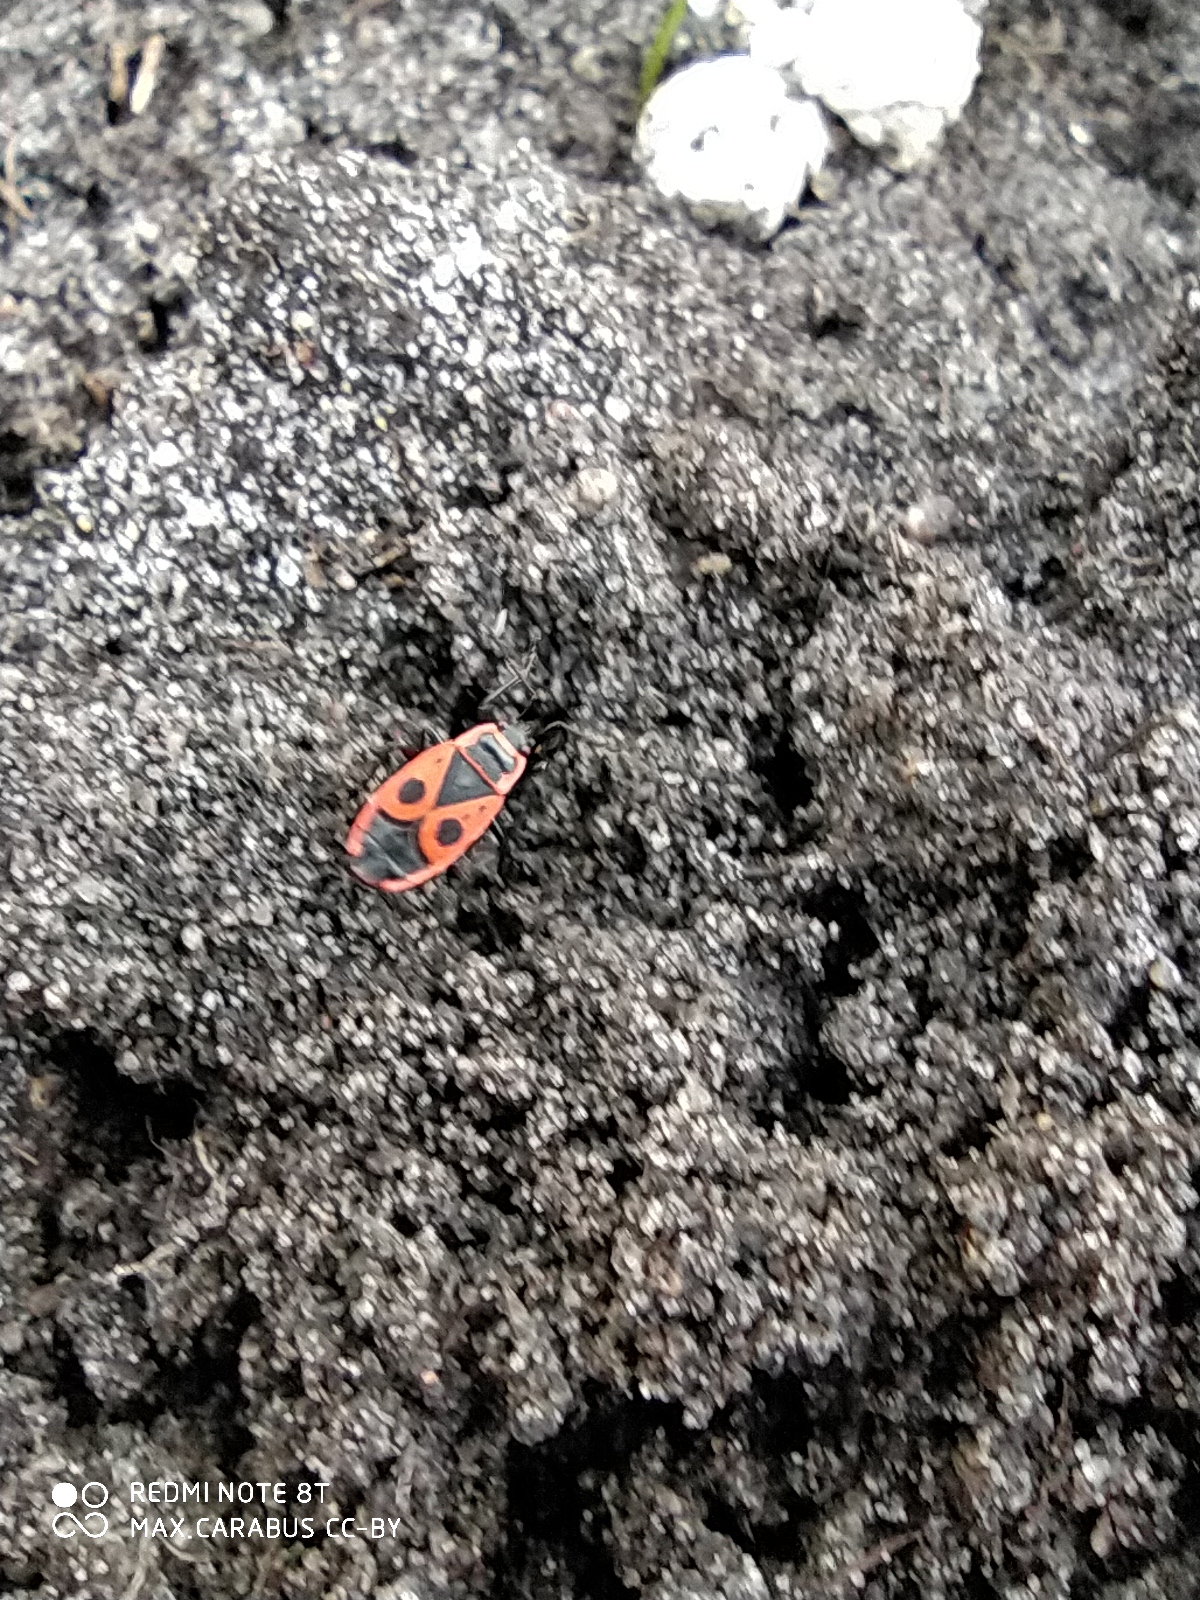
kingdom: Animalia
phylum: Arthropoda
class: Insecta
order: Hemiptera
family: Pyrrhocoridae
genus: Pyrrhocoris
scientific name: Pyrrhocoris apterus
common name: Firebug
